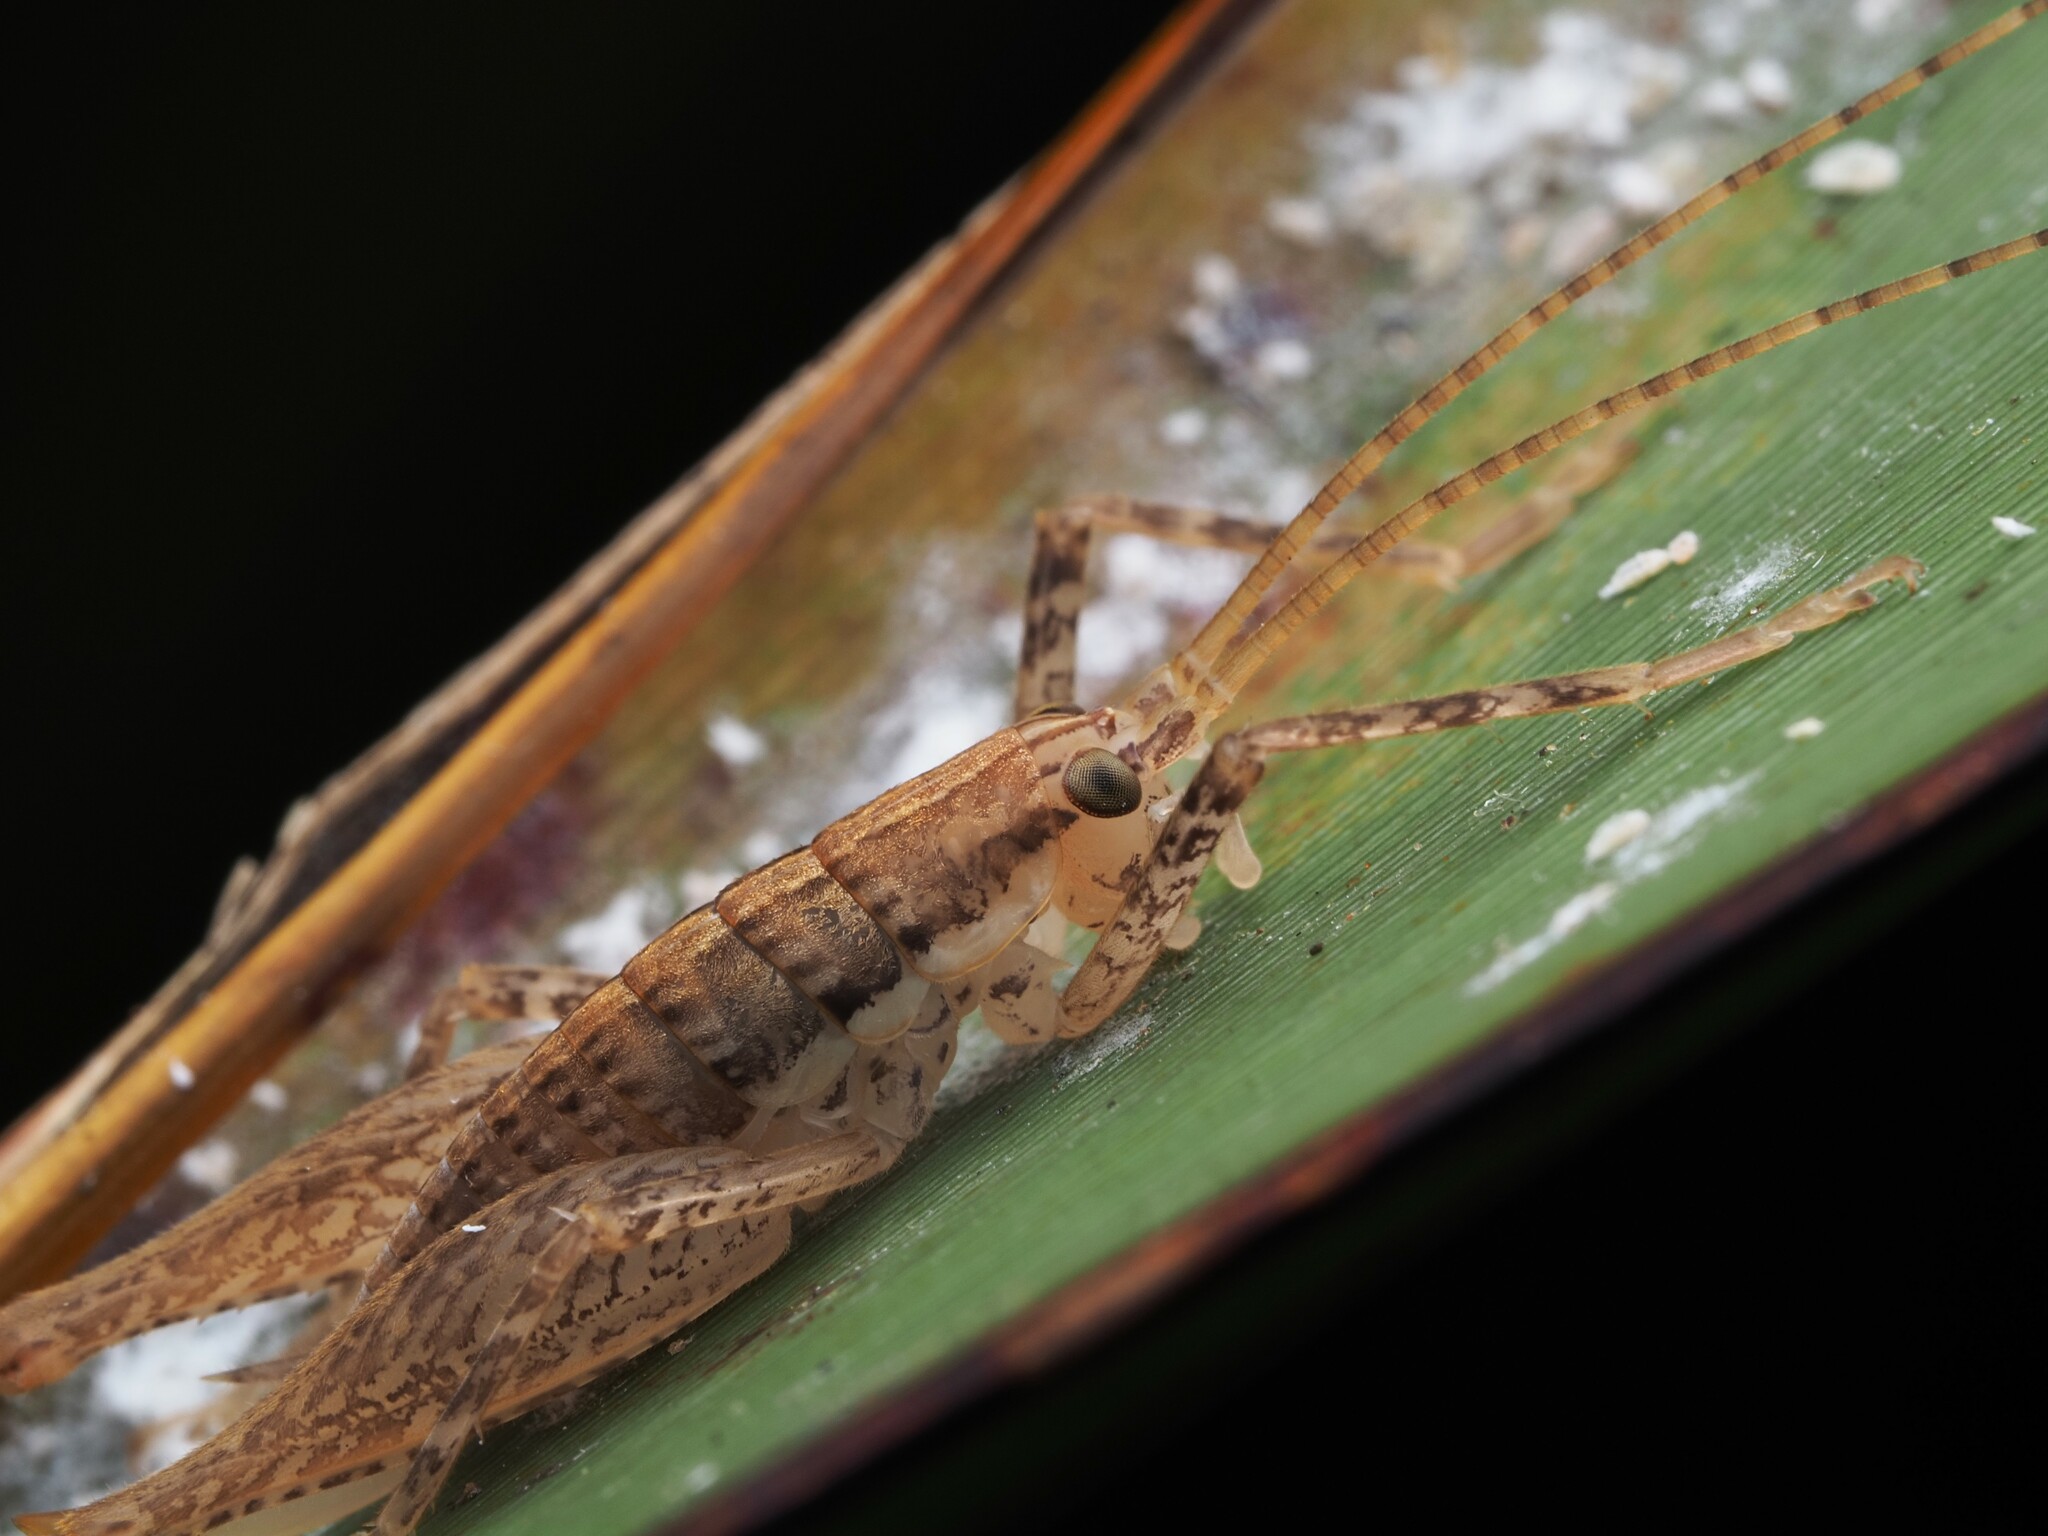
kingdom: Animalia
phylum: Arthropoda
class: Insecta
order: Orthoptera
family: Rhaphidophoridae
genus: Talitropsis
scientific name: Talitropsis poduroides
